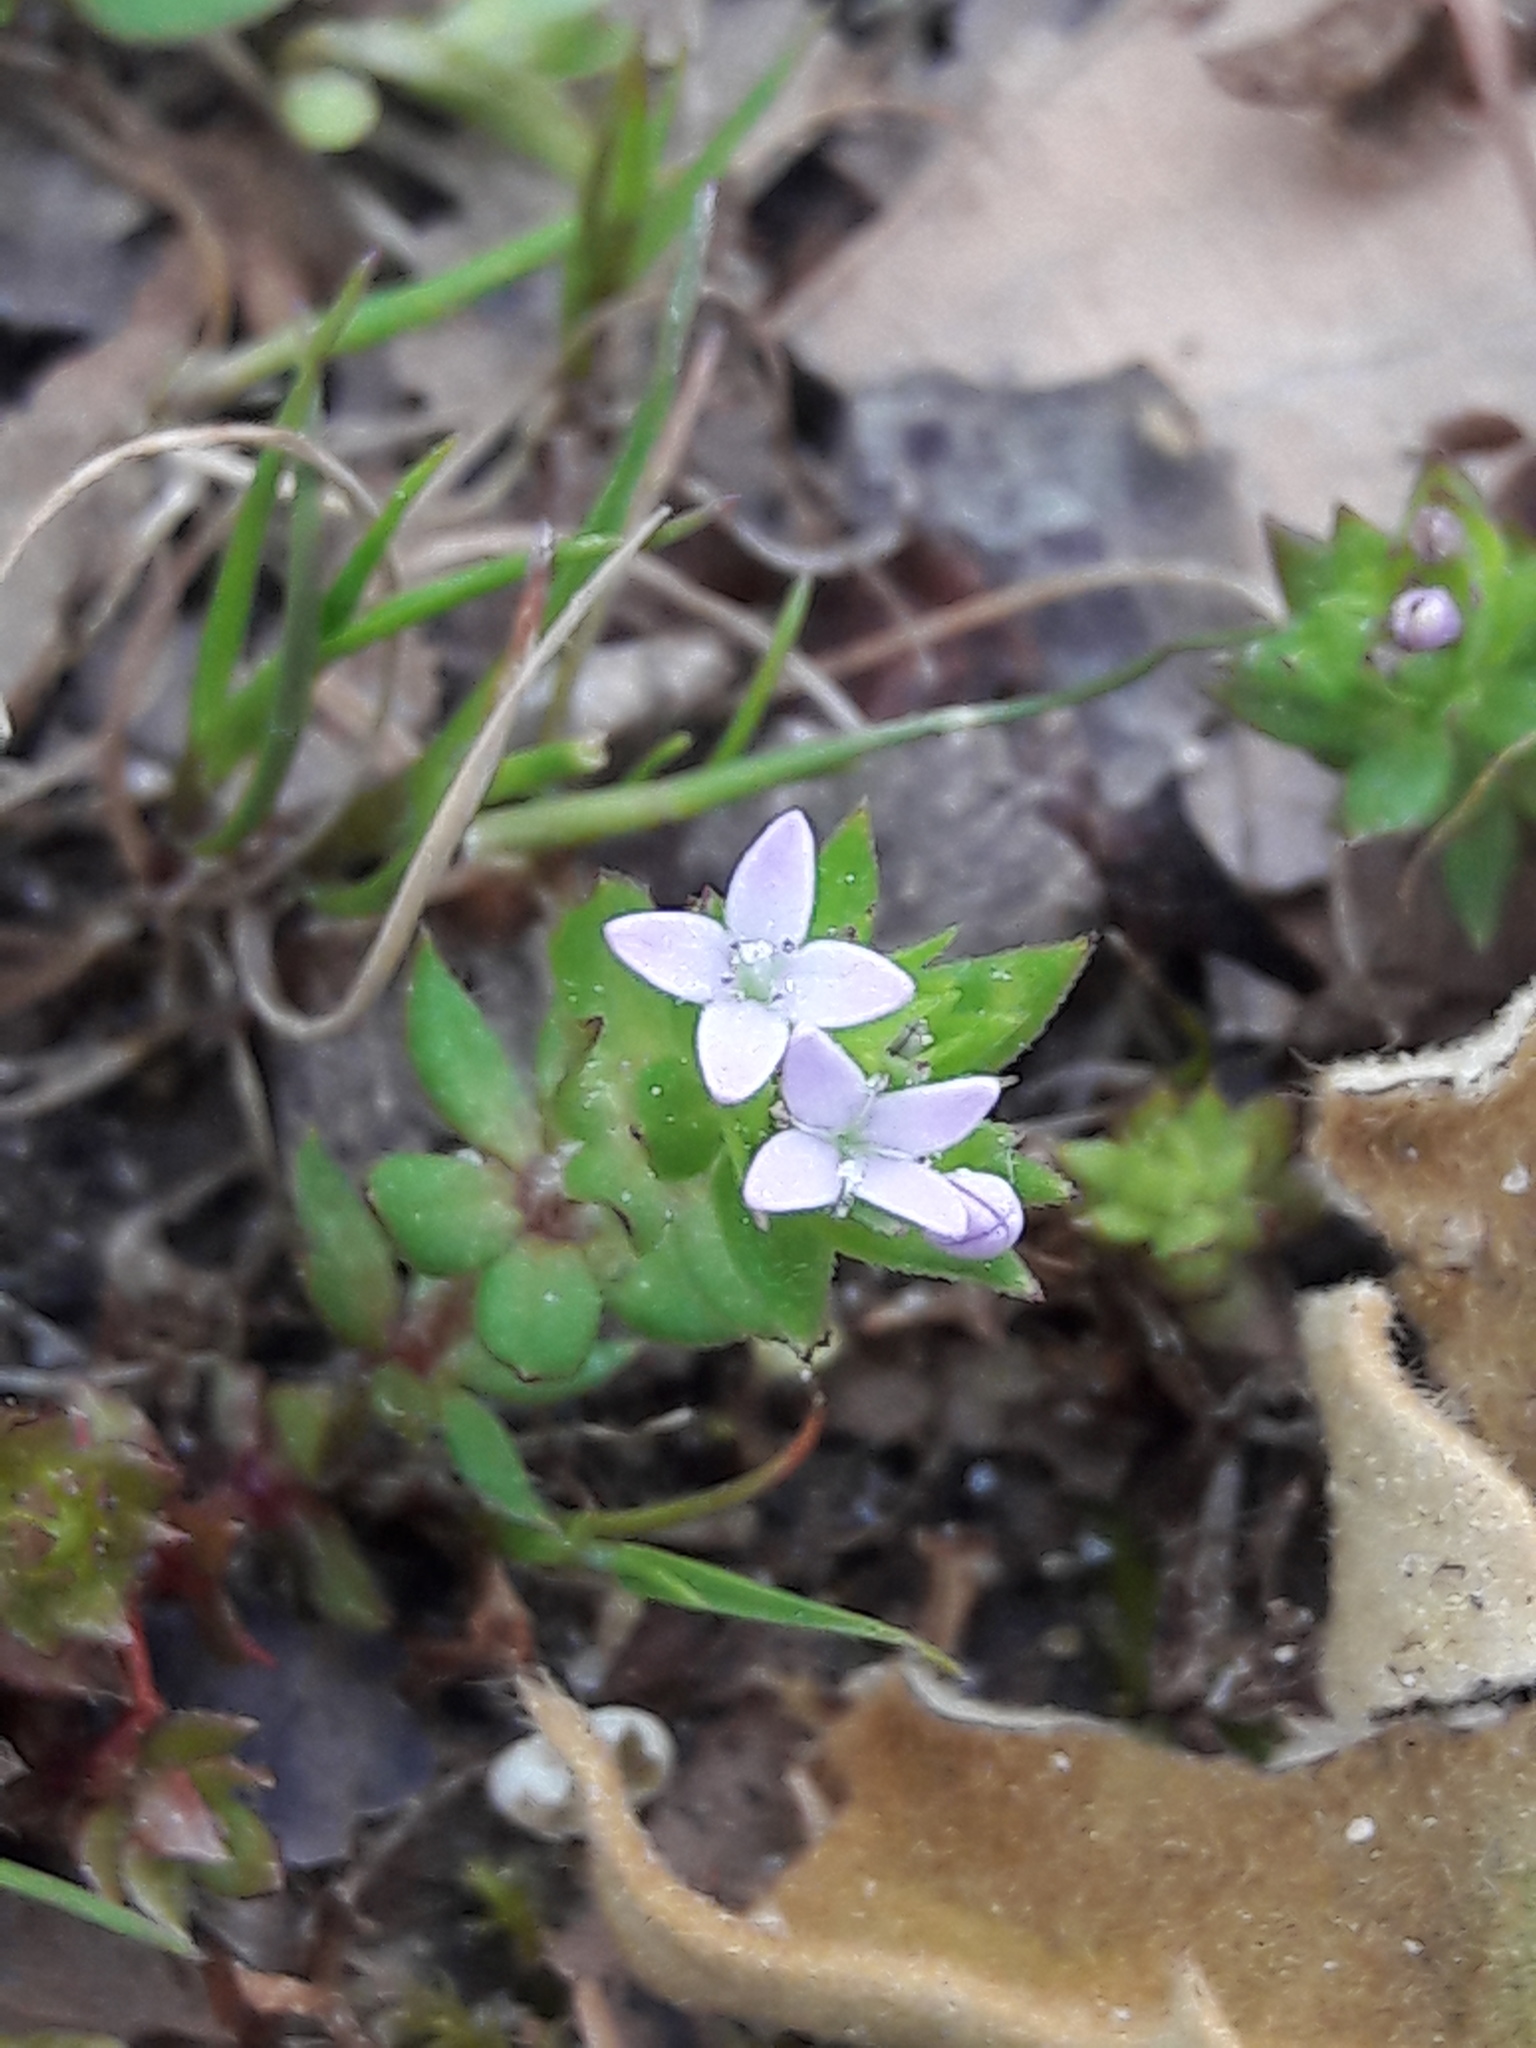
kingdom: Plantae
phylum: Tracheophyta
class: Magnoliopsida
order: Gentianales
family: Rubiaceae
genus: Sherardia
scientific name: Sherardia arvensis
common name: Field madder
